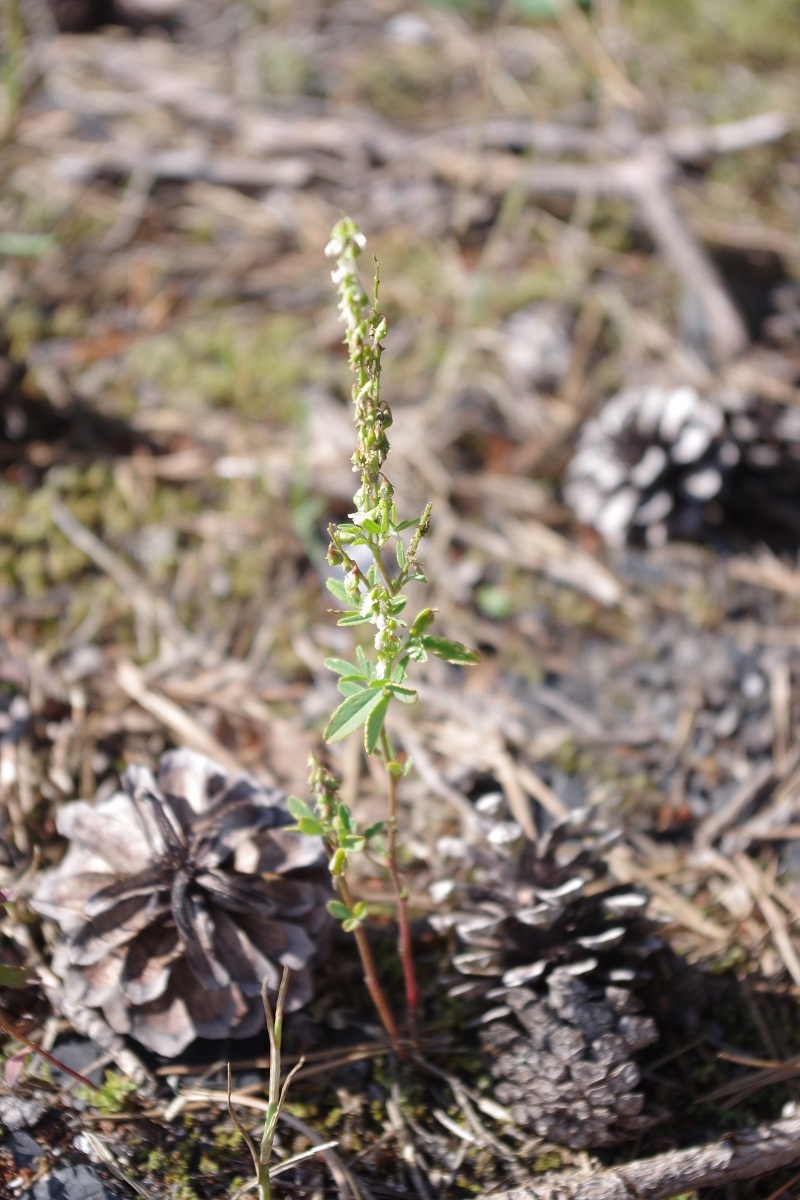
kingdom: Plantae
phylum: Tracheophyta
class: Magnoliopsida
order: Fabales
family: Fabaceae
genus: Melilotus
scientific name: Melilotus albus
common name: White melilot
